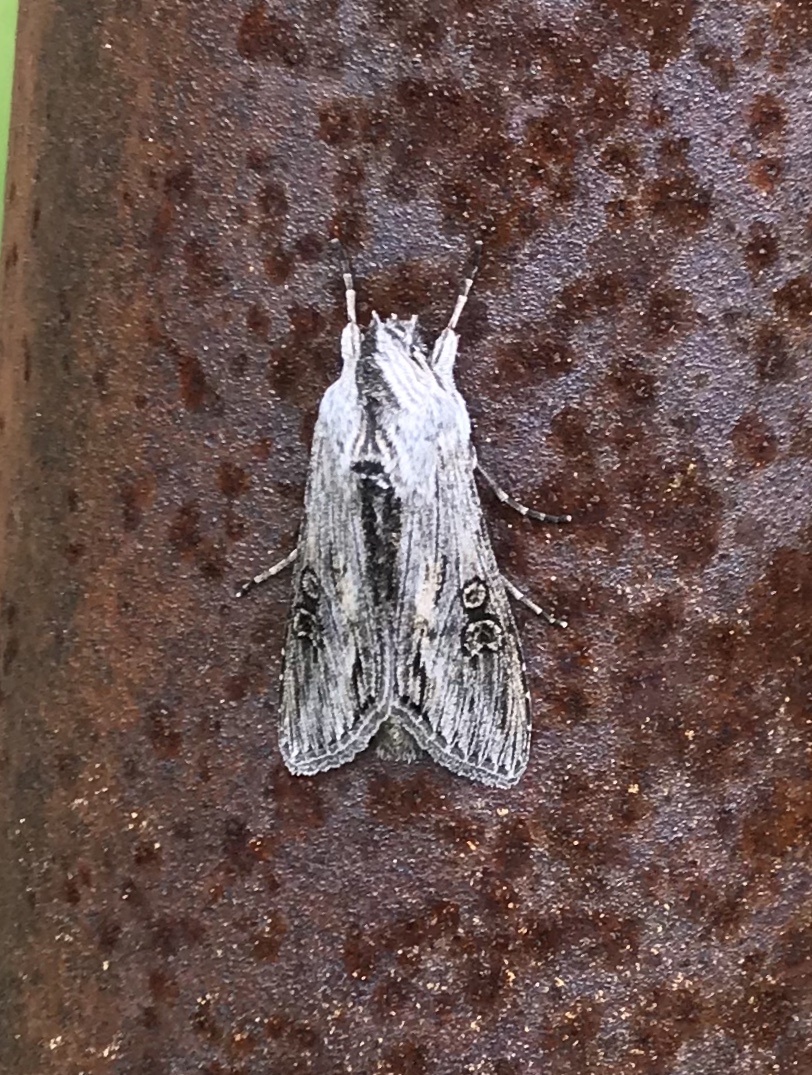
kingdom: Animalia
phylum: Arthropoda
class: Insecta
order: Lepidoptera
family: Noctuidae
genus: Cucullia
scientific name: Cucullia antipoda
